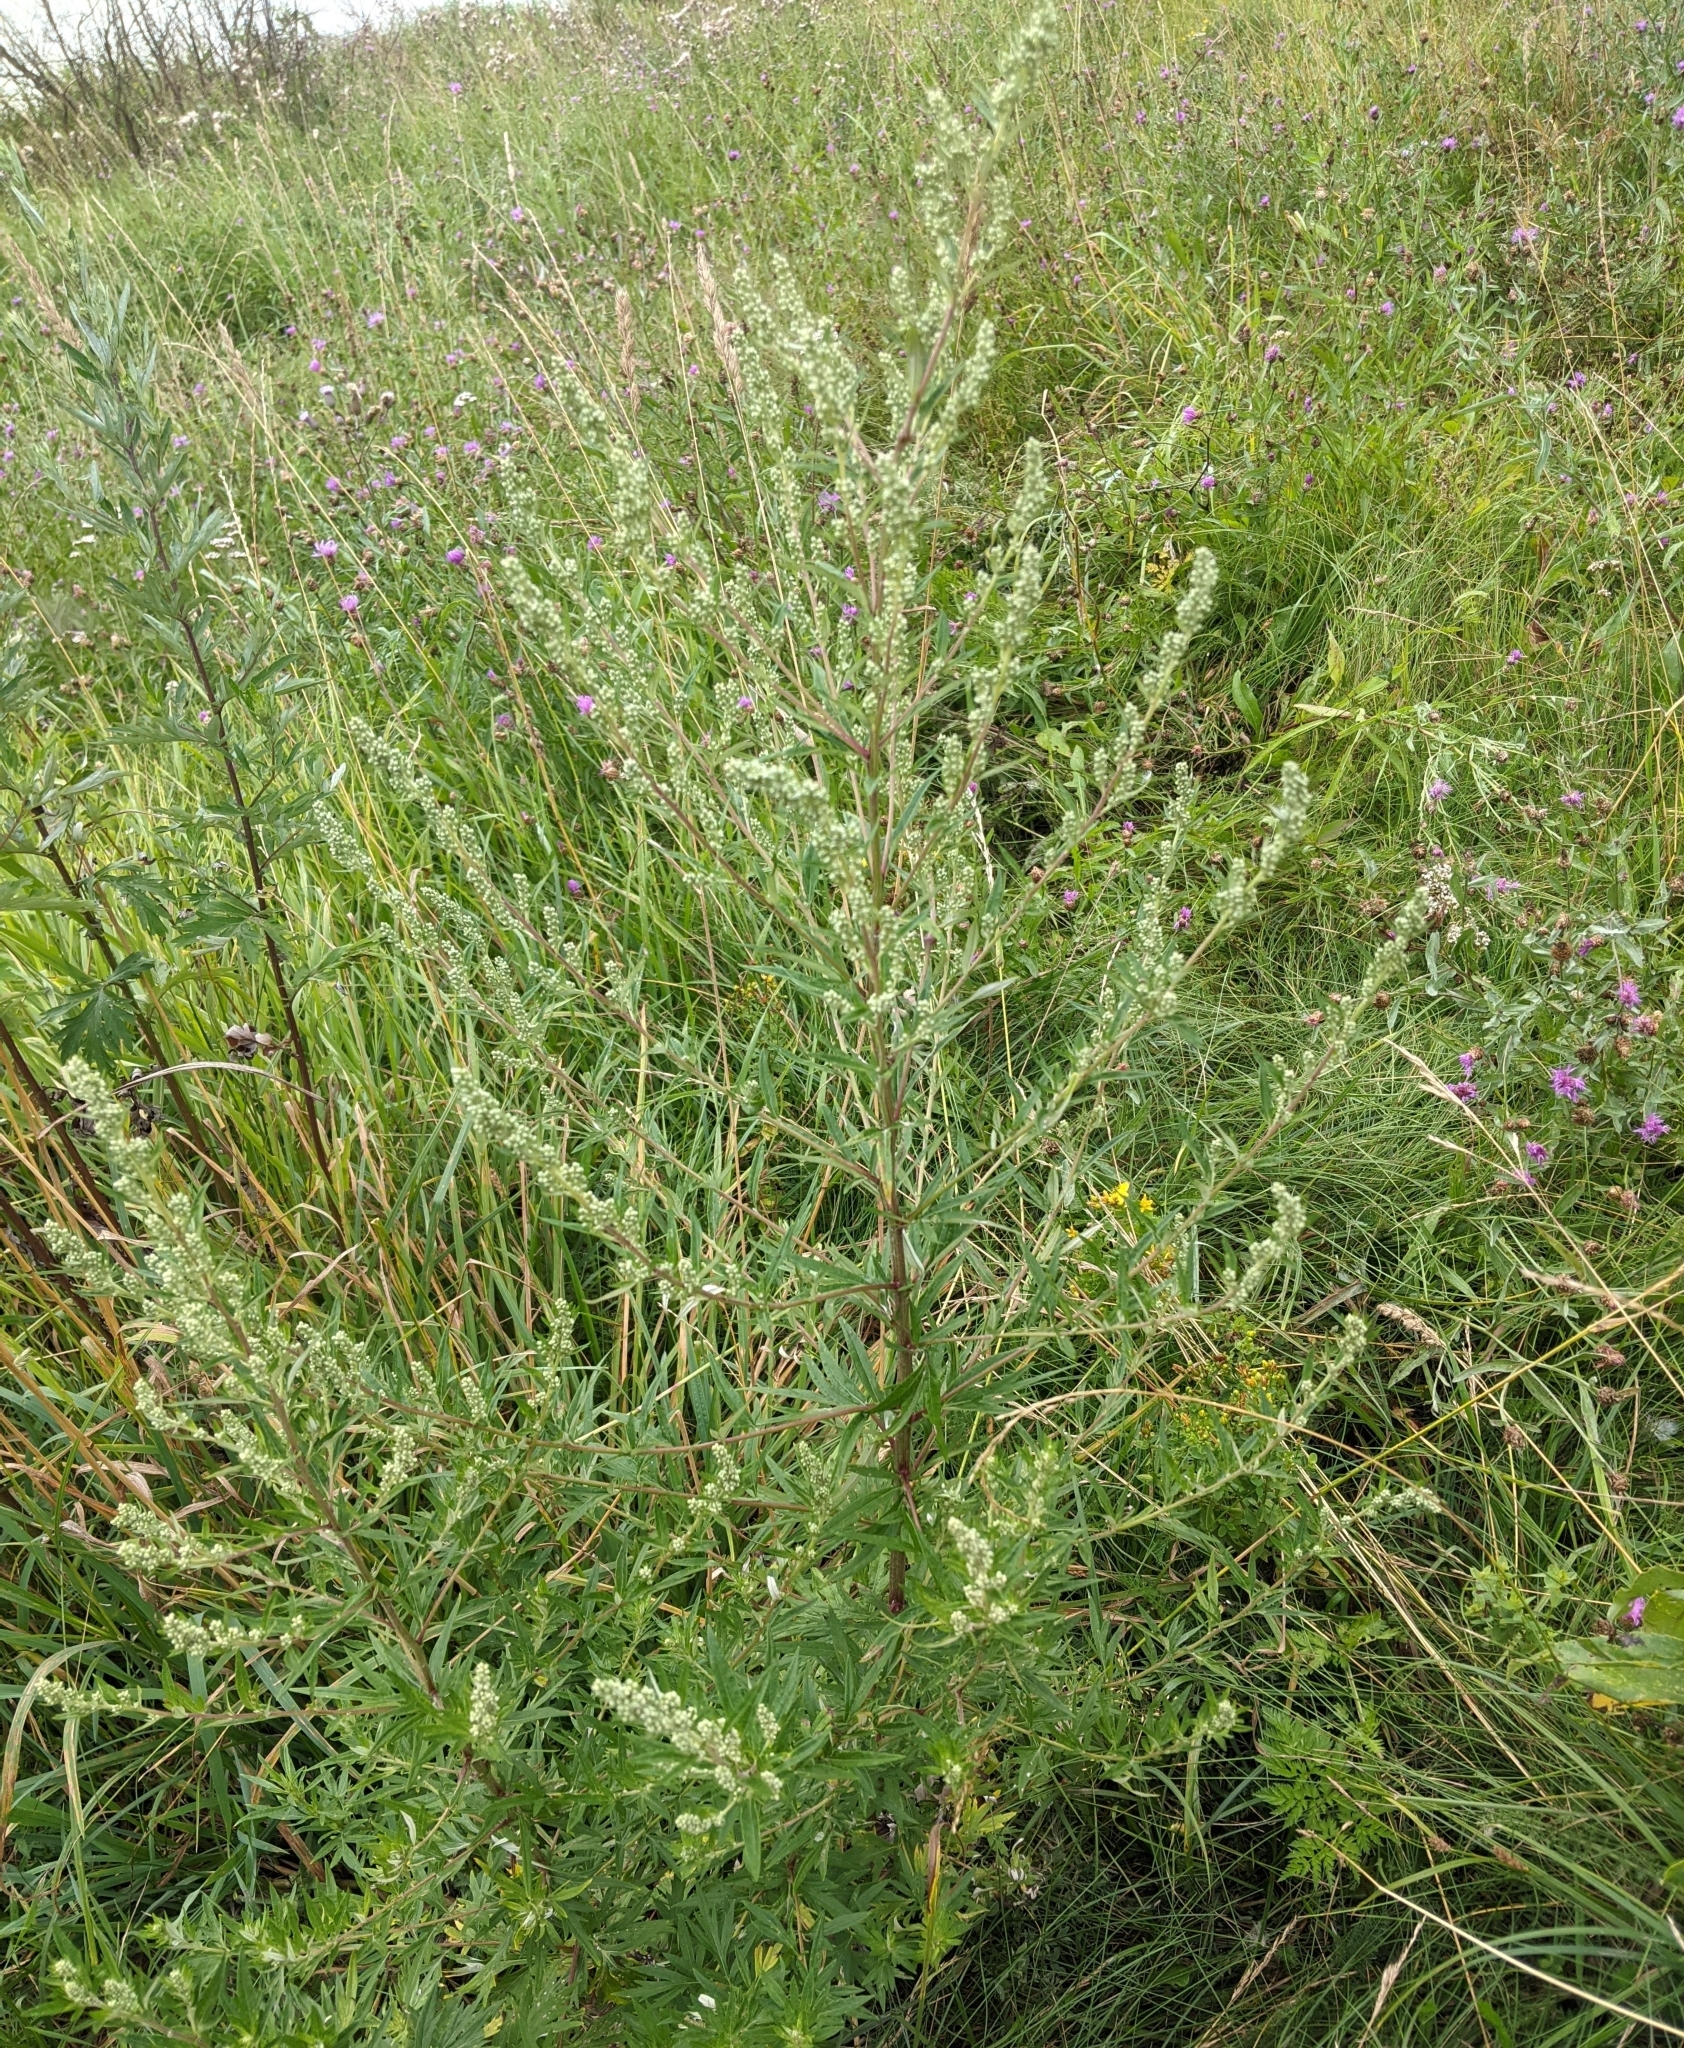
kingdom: Plantae
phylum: Tracheophyta
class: Magnoliopsida
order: Asterales
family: Asteraceae
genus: Artemisia
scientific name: Artemisia vulgaris
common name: Mugwort
